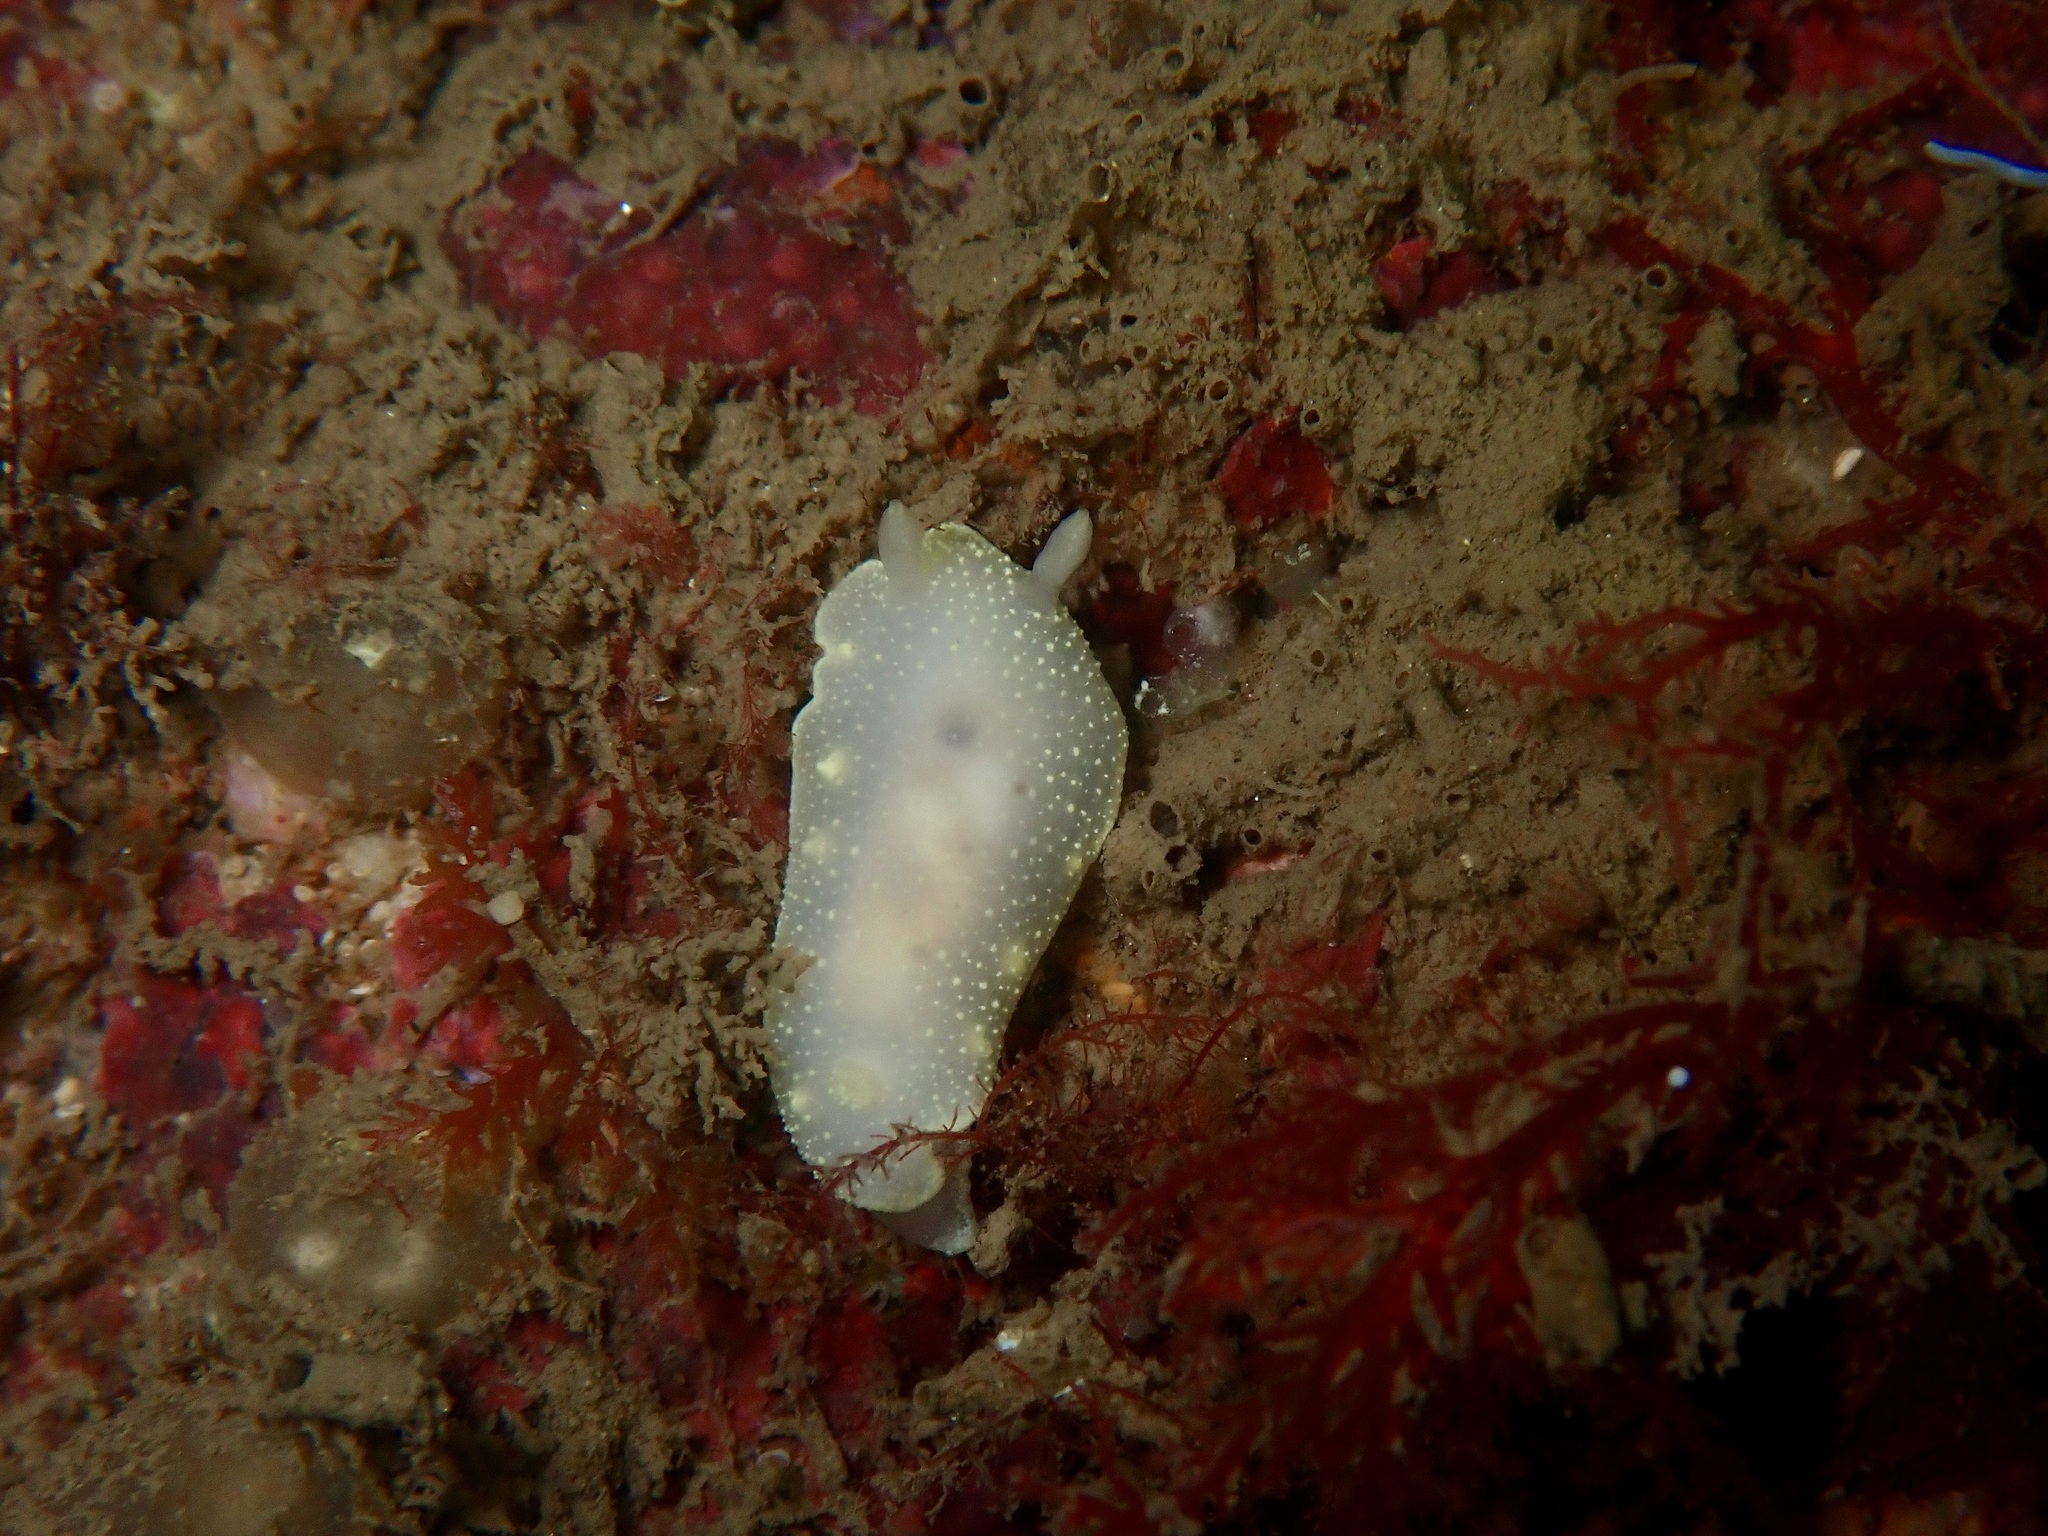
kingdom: Animalia
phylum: Mollusca
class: Gastropoda
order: Nudibranchia
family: Cadlinidae
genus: Cadlina
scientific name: Cadlina laevis
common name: White atlantic cadlina
